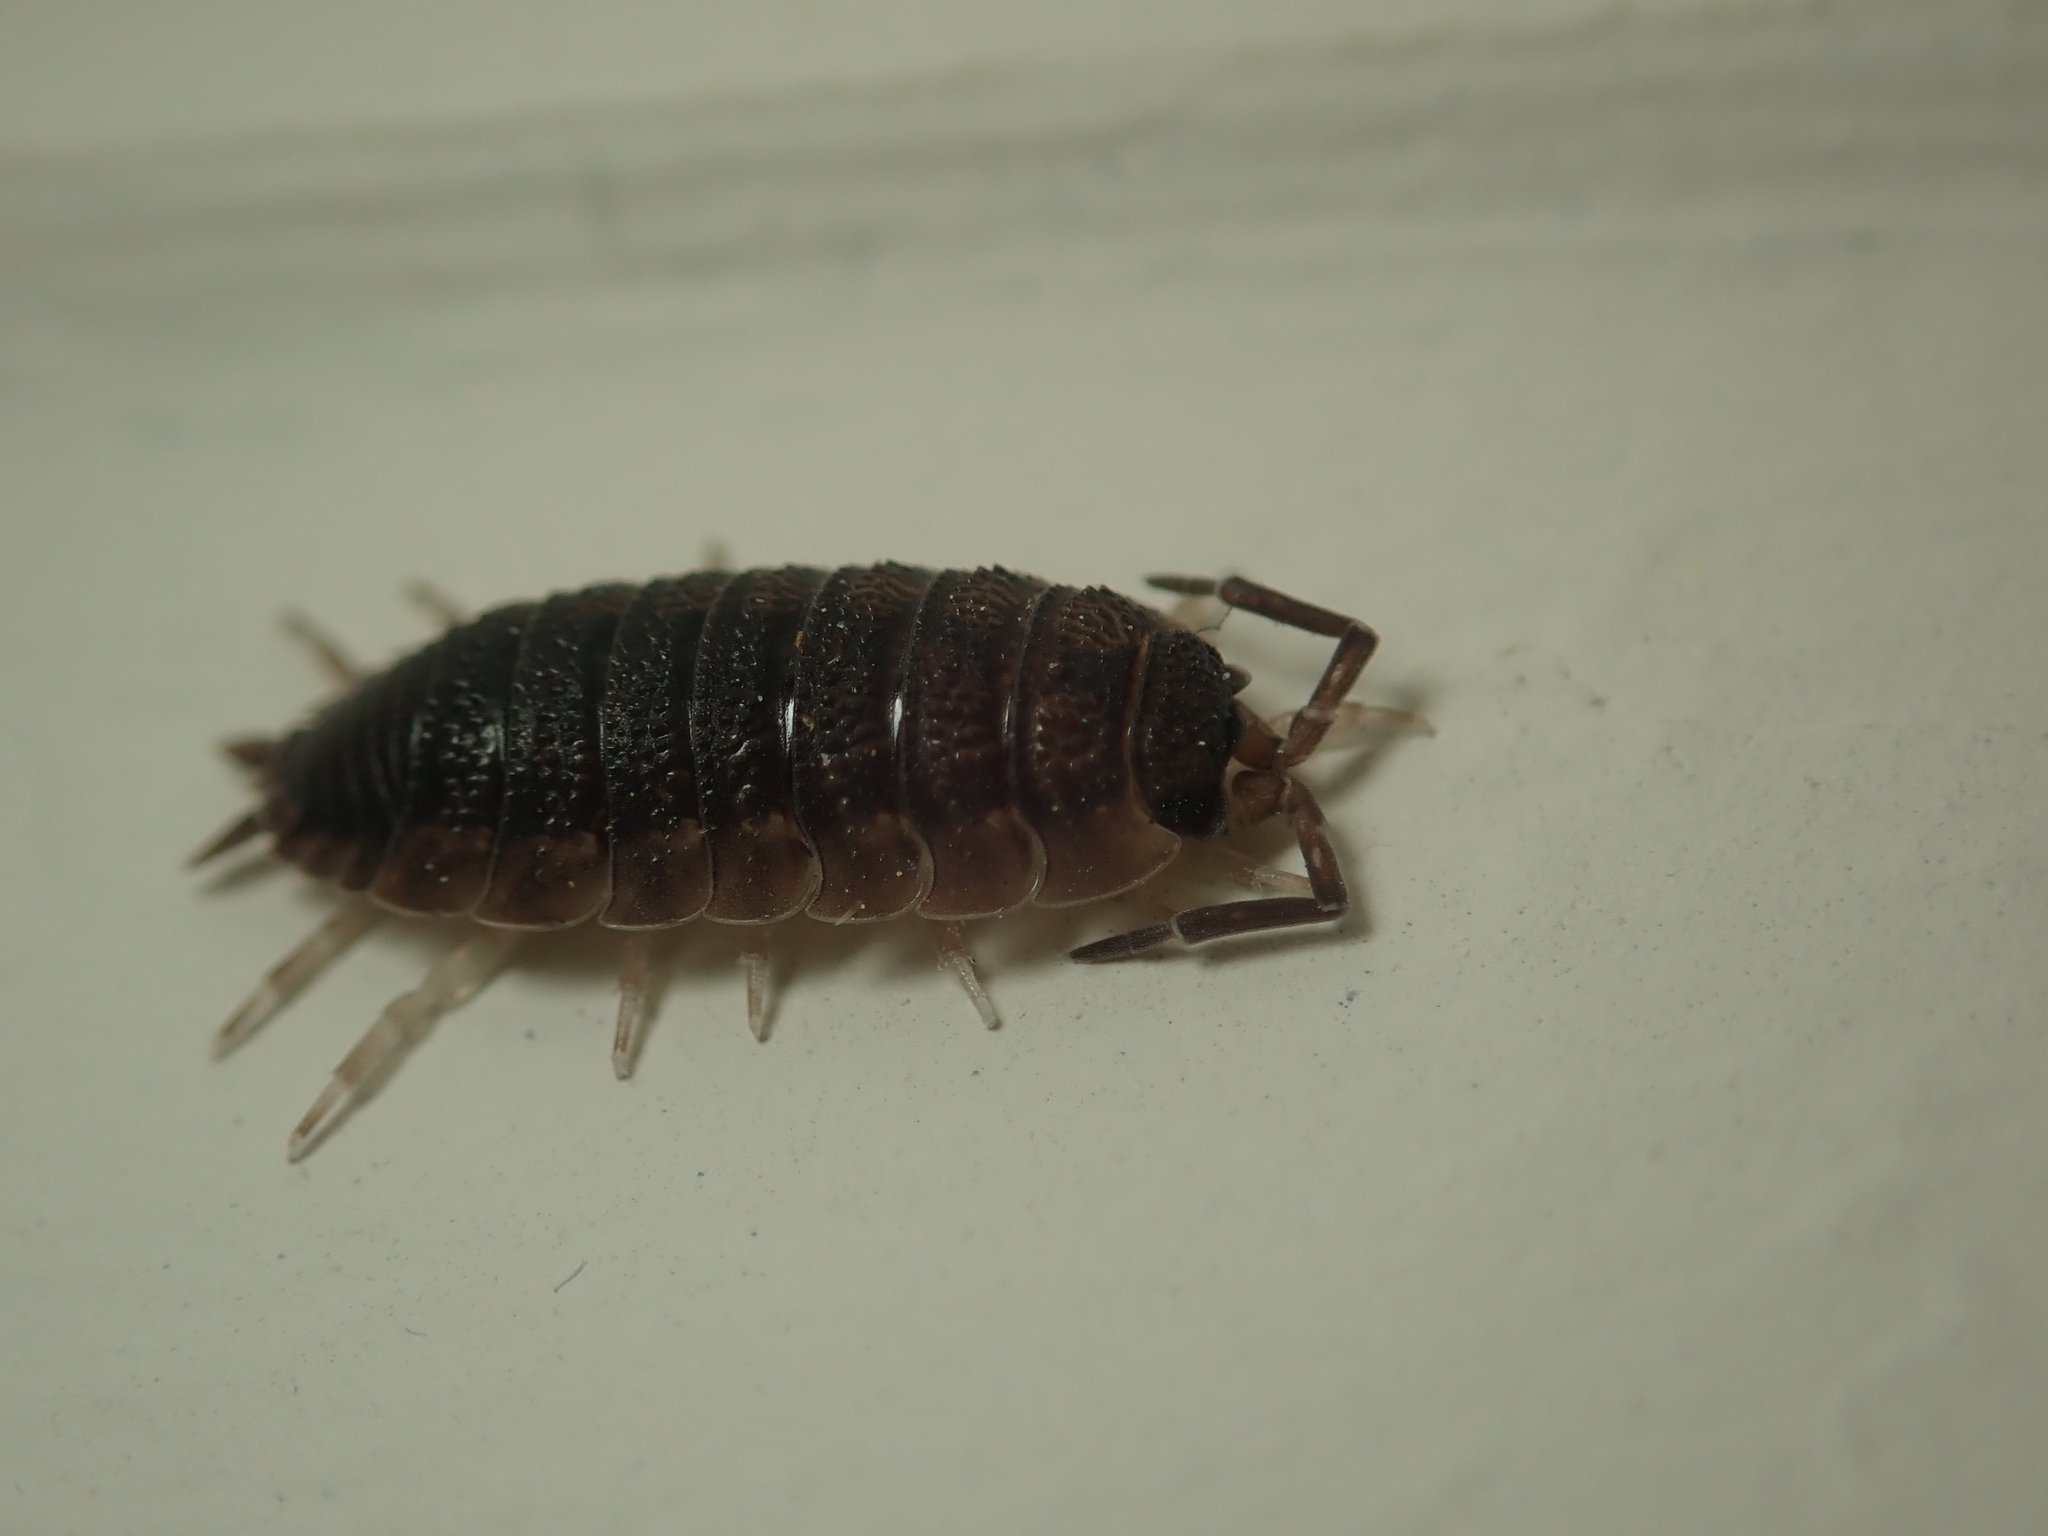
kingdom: Animalia
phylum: Arthropoda
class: Malacostraca
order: Isopoda
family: Porcellionidae
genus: Porcellio
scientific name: Porcellio scaber
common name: Common rough woodlouse
